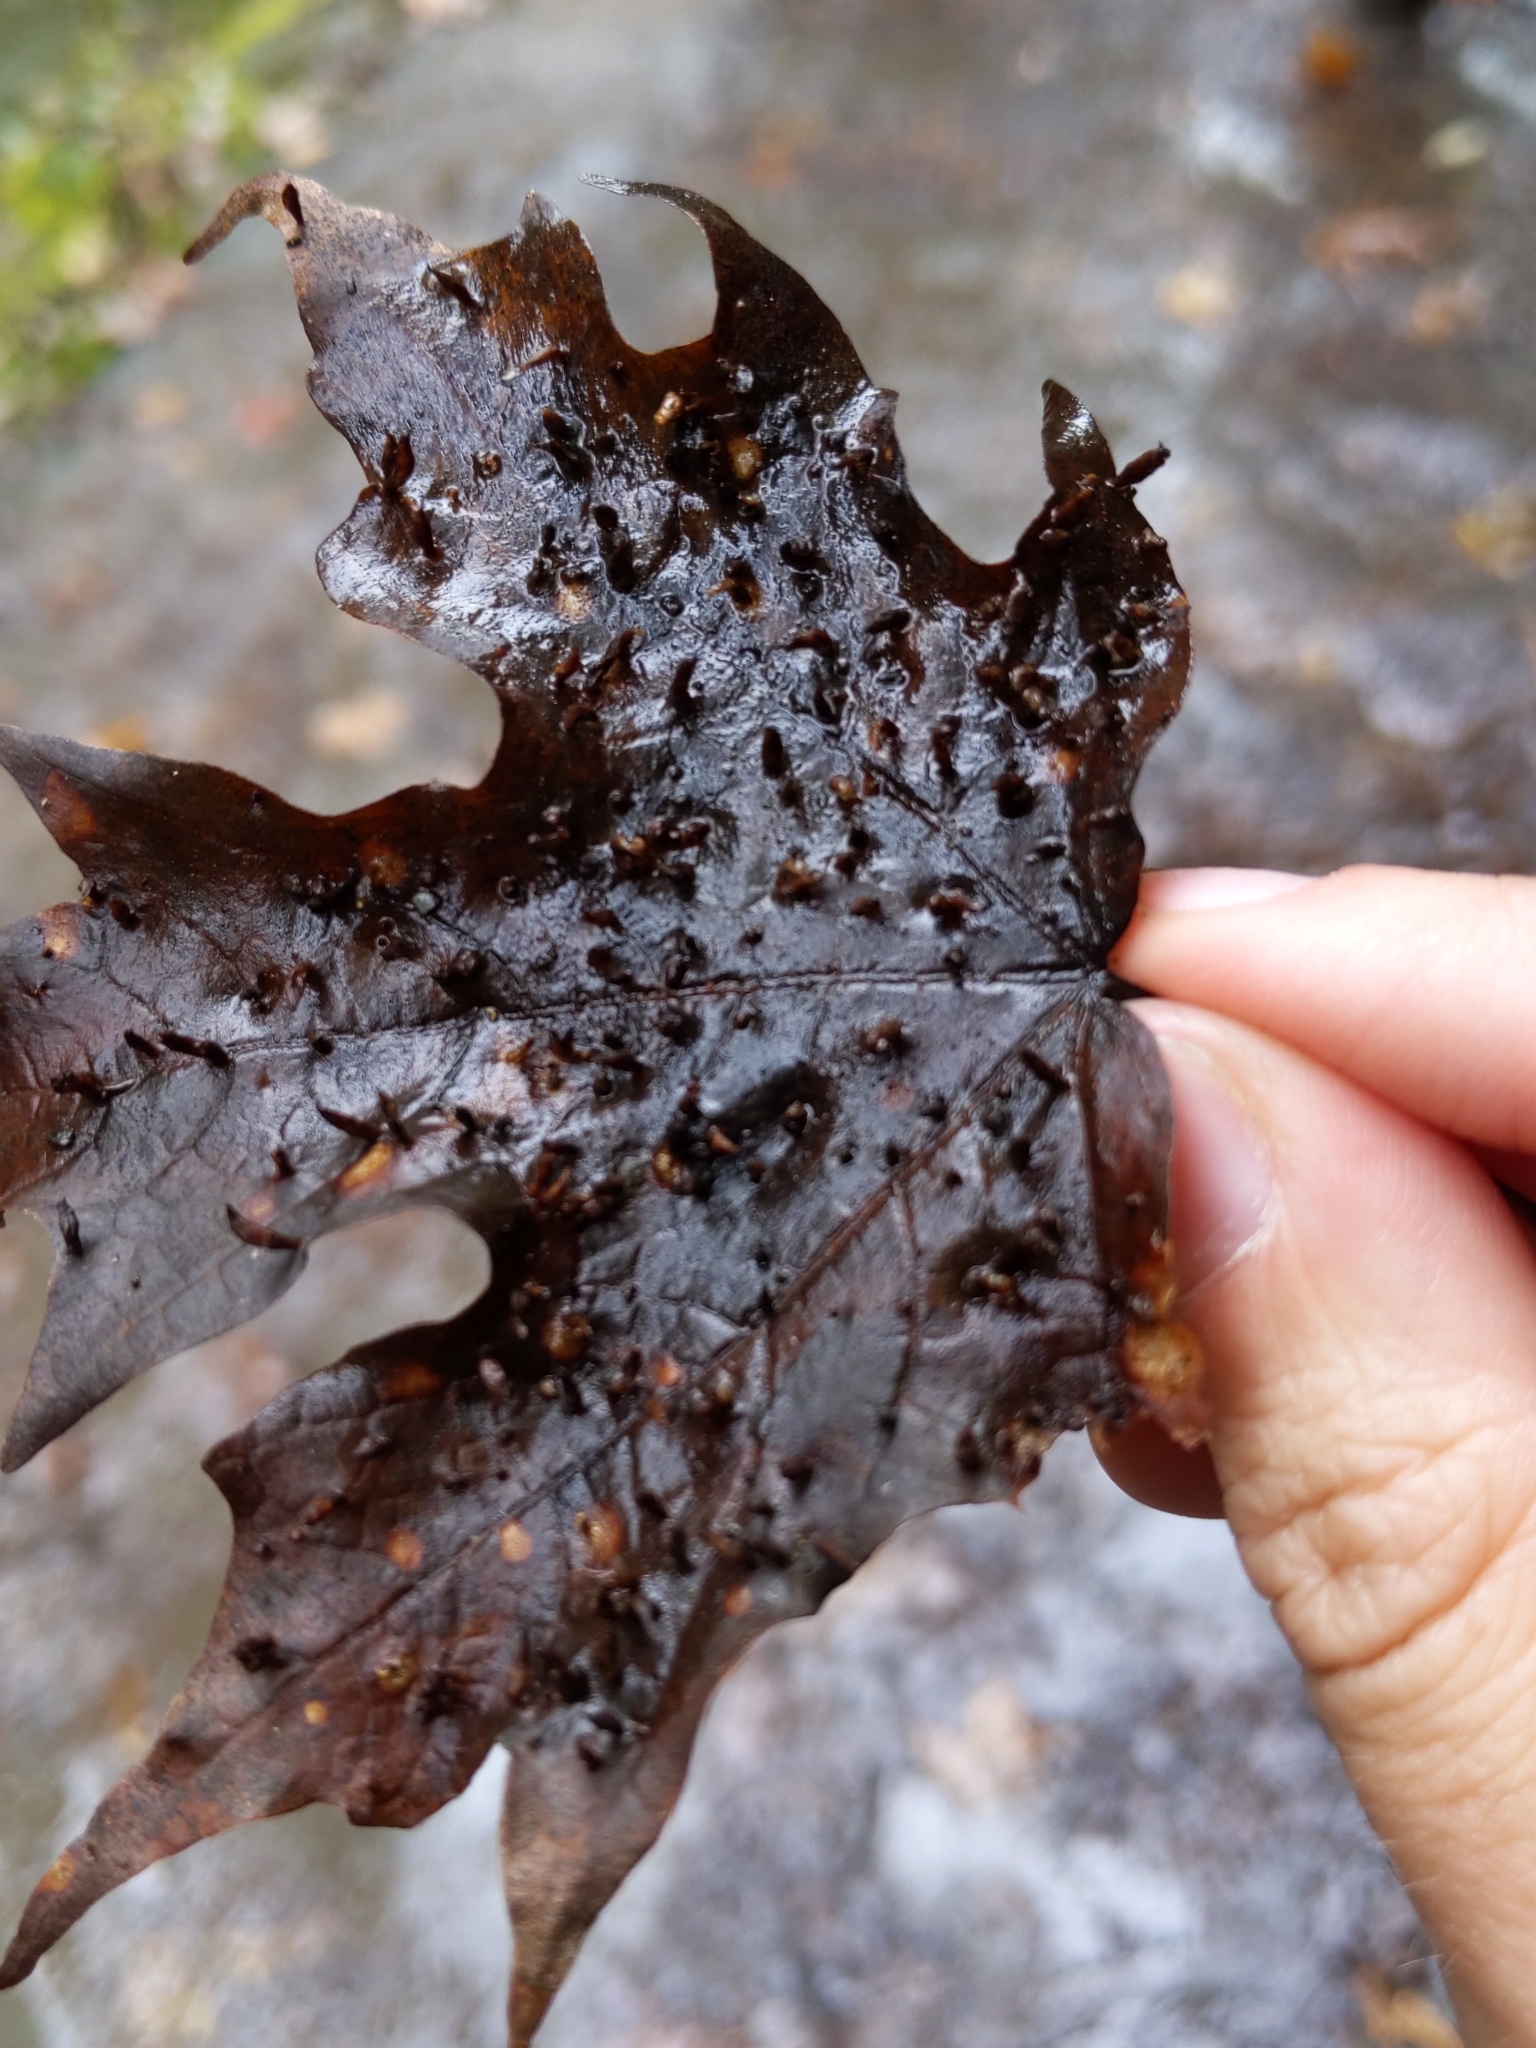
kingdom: Animalia
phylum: Arthropoda
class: Arachnida
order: Trombidiformes
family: Eriophyidae
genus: Vasates
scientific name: Vasates aceriscrumena
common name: Maple spindle gall mite
